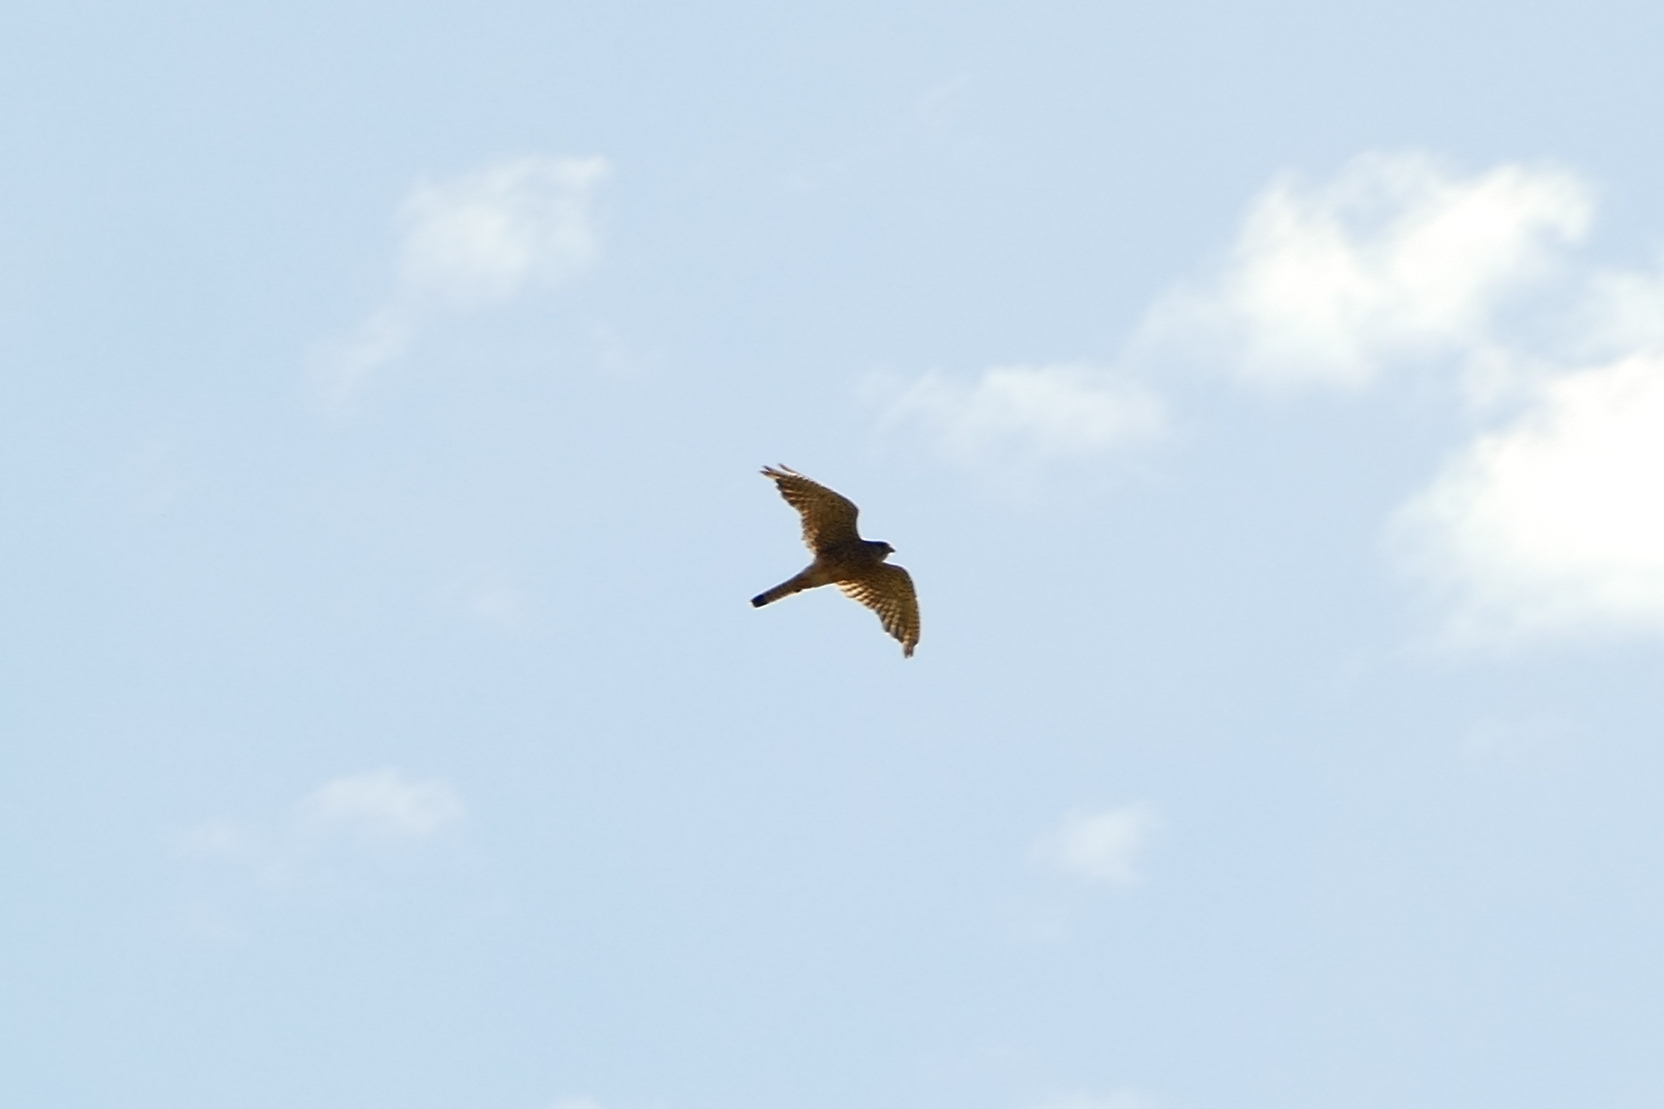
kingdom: Animalia
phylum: Chordata
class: Aves
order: Falconiformes
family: Falconidae
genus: Falco
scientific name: Falco tinnunculus
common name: Common kestrel
